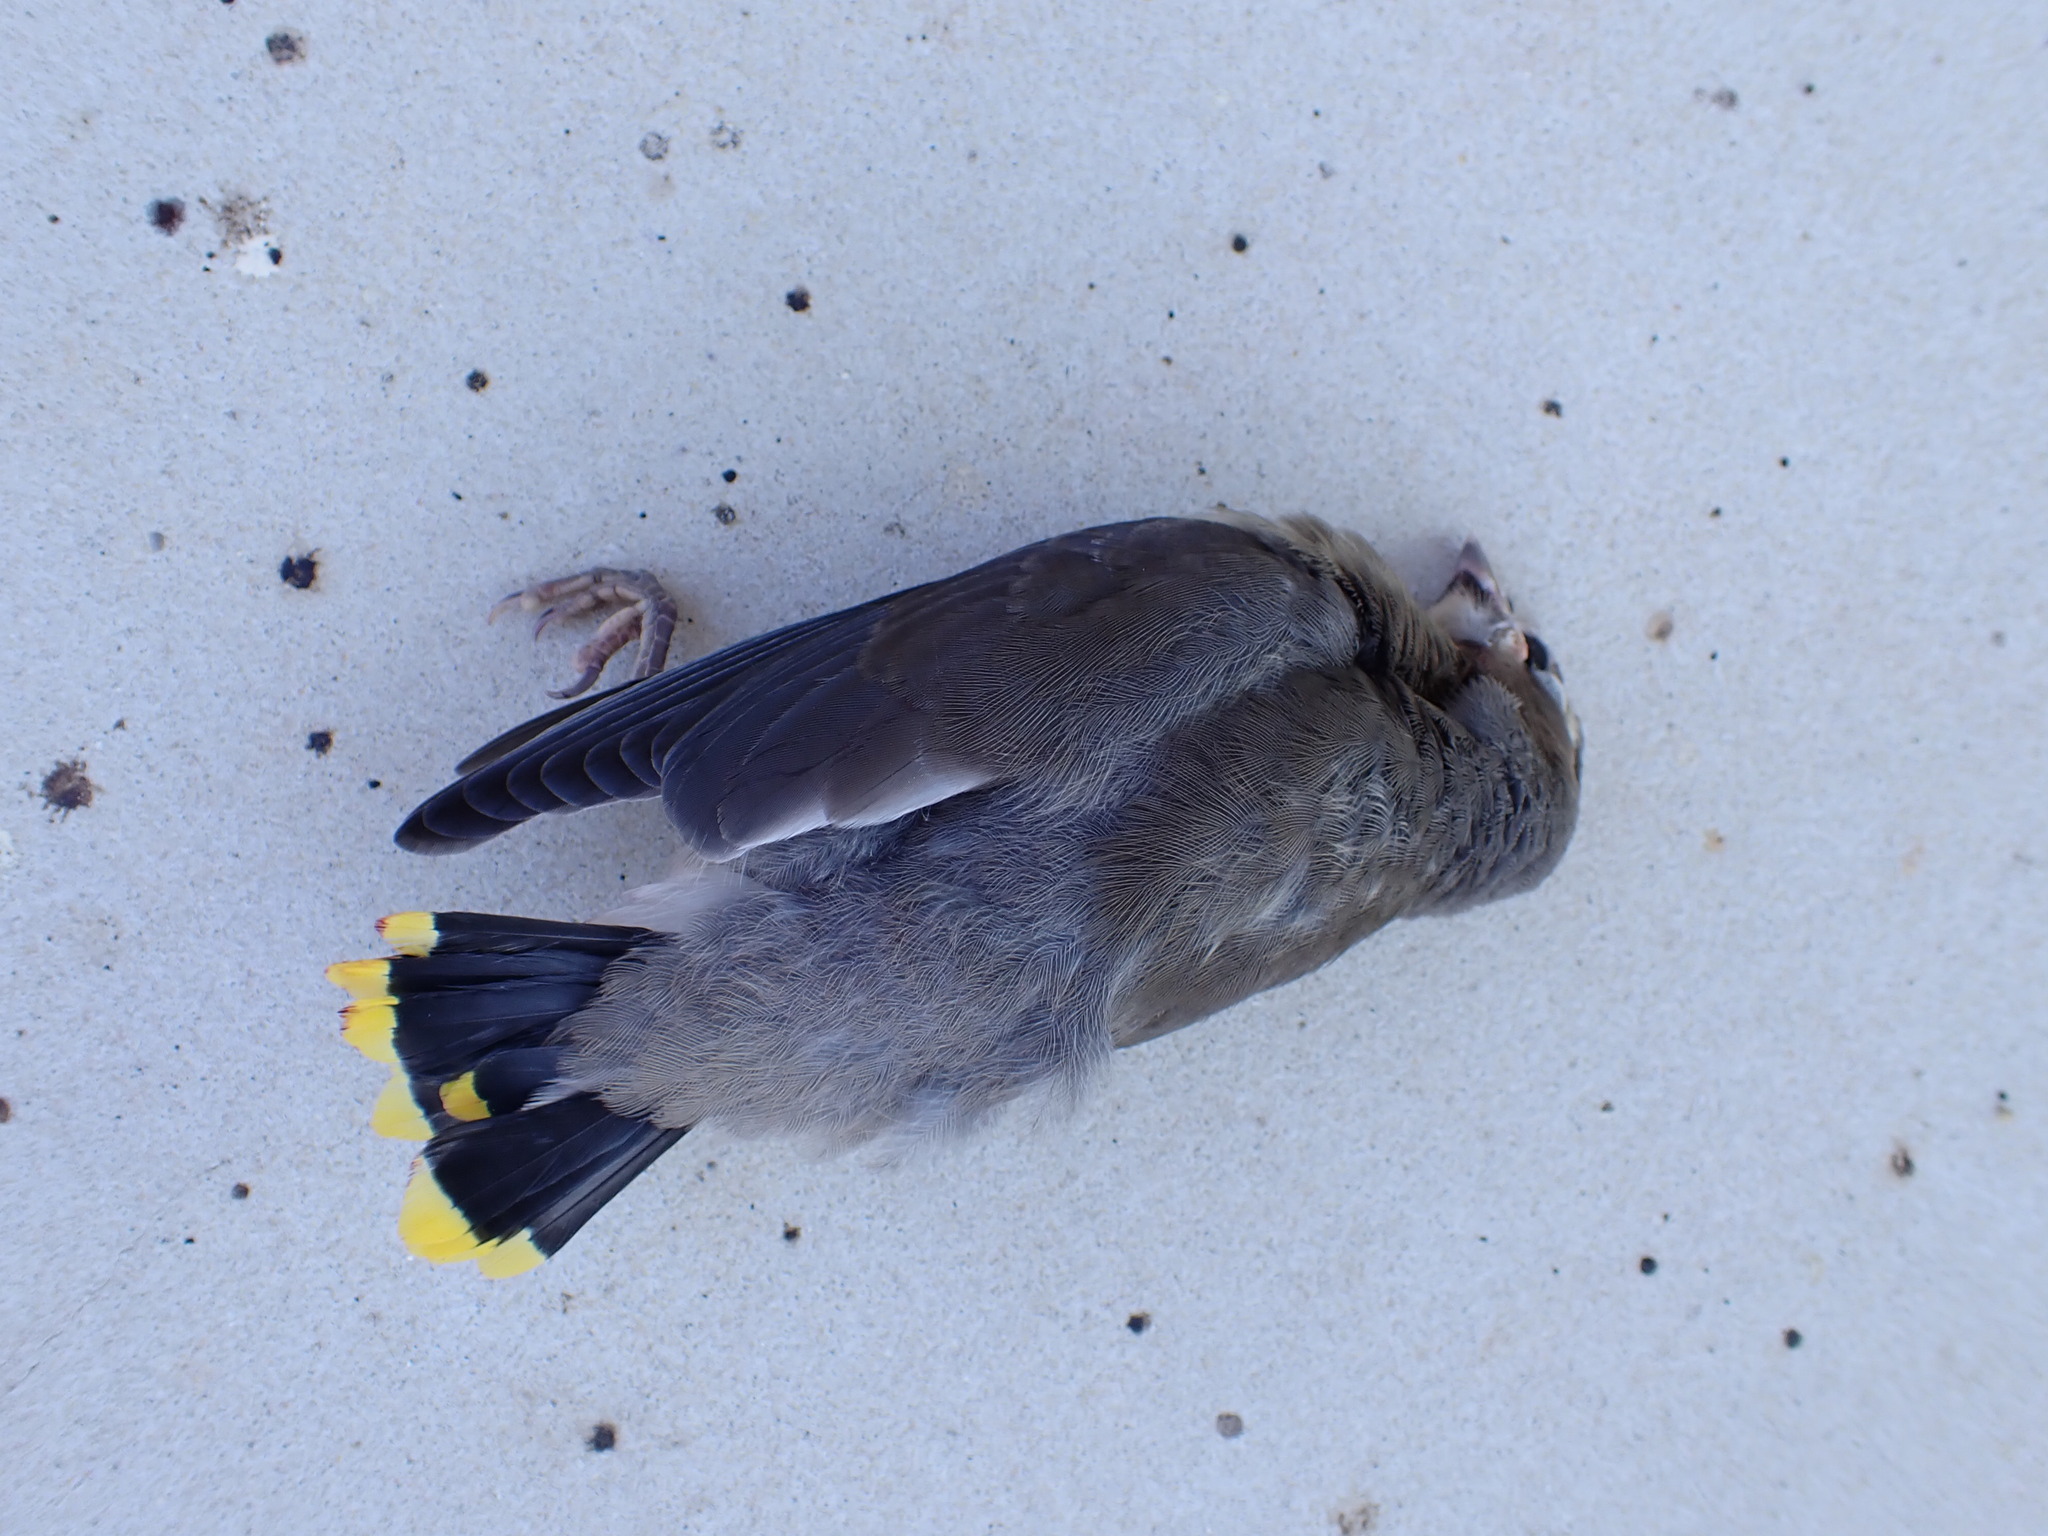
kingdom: Animalia
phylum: Chordata
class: Aves
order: Passeriformes
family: Bombycillidae
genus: Bombycilla
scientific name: Bombycilla cedrorum
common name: Cedar waxwing
